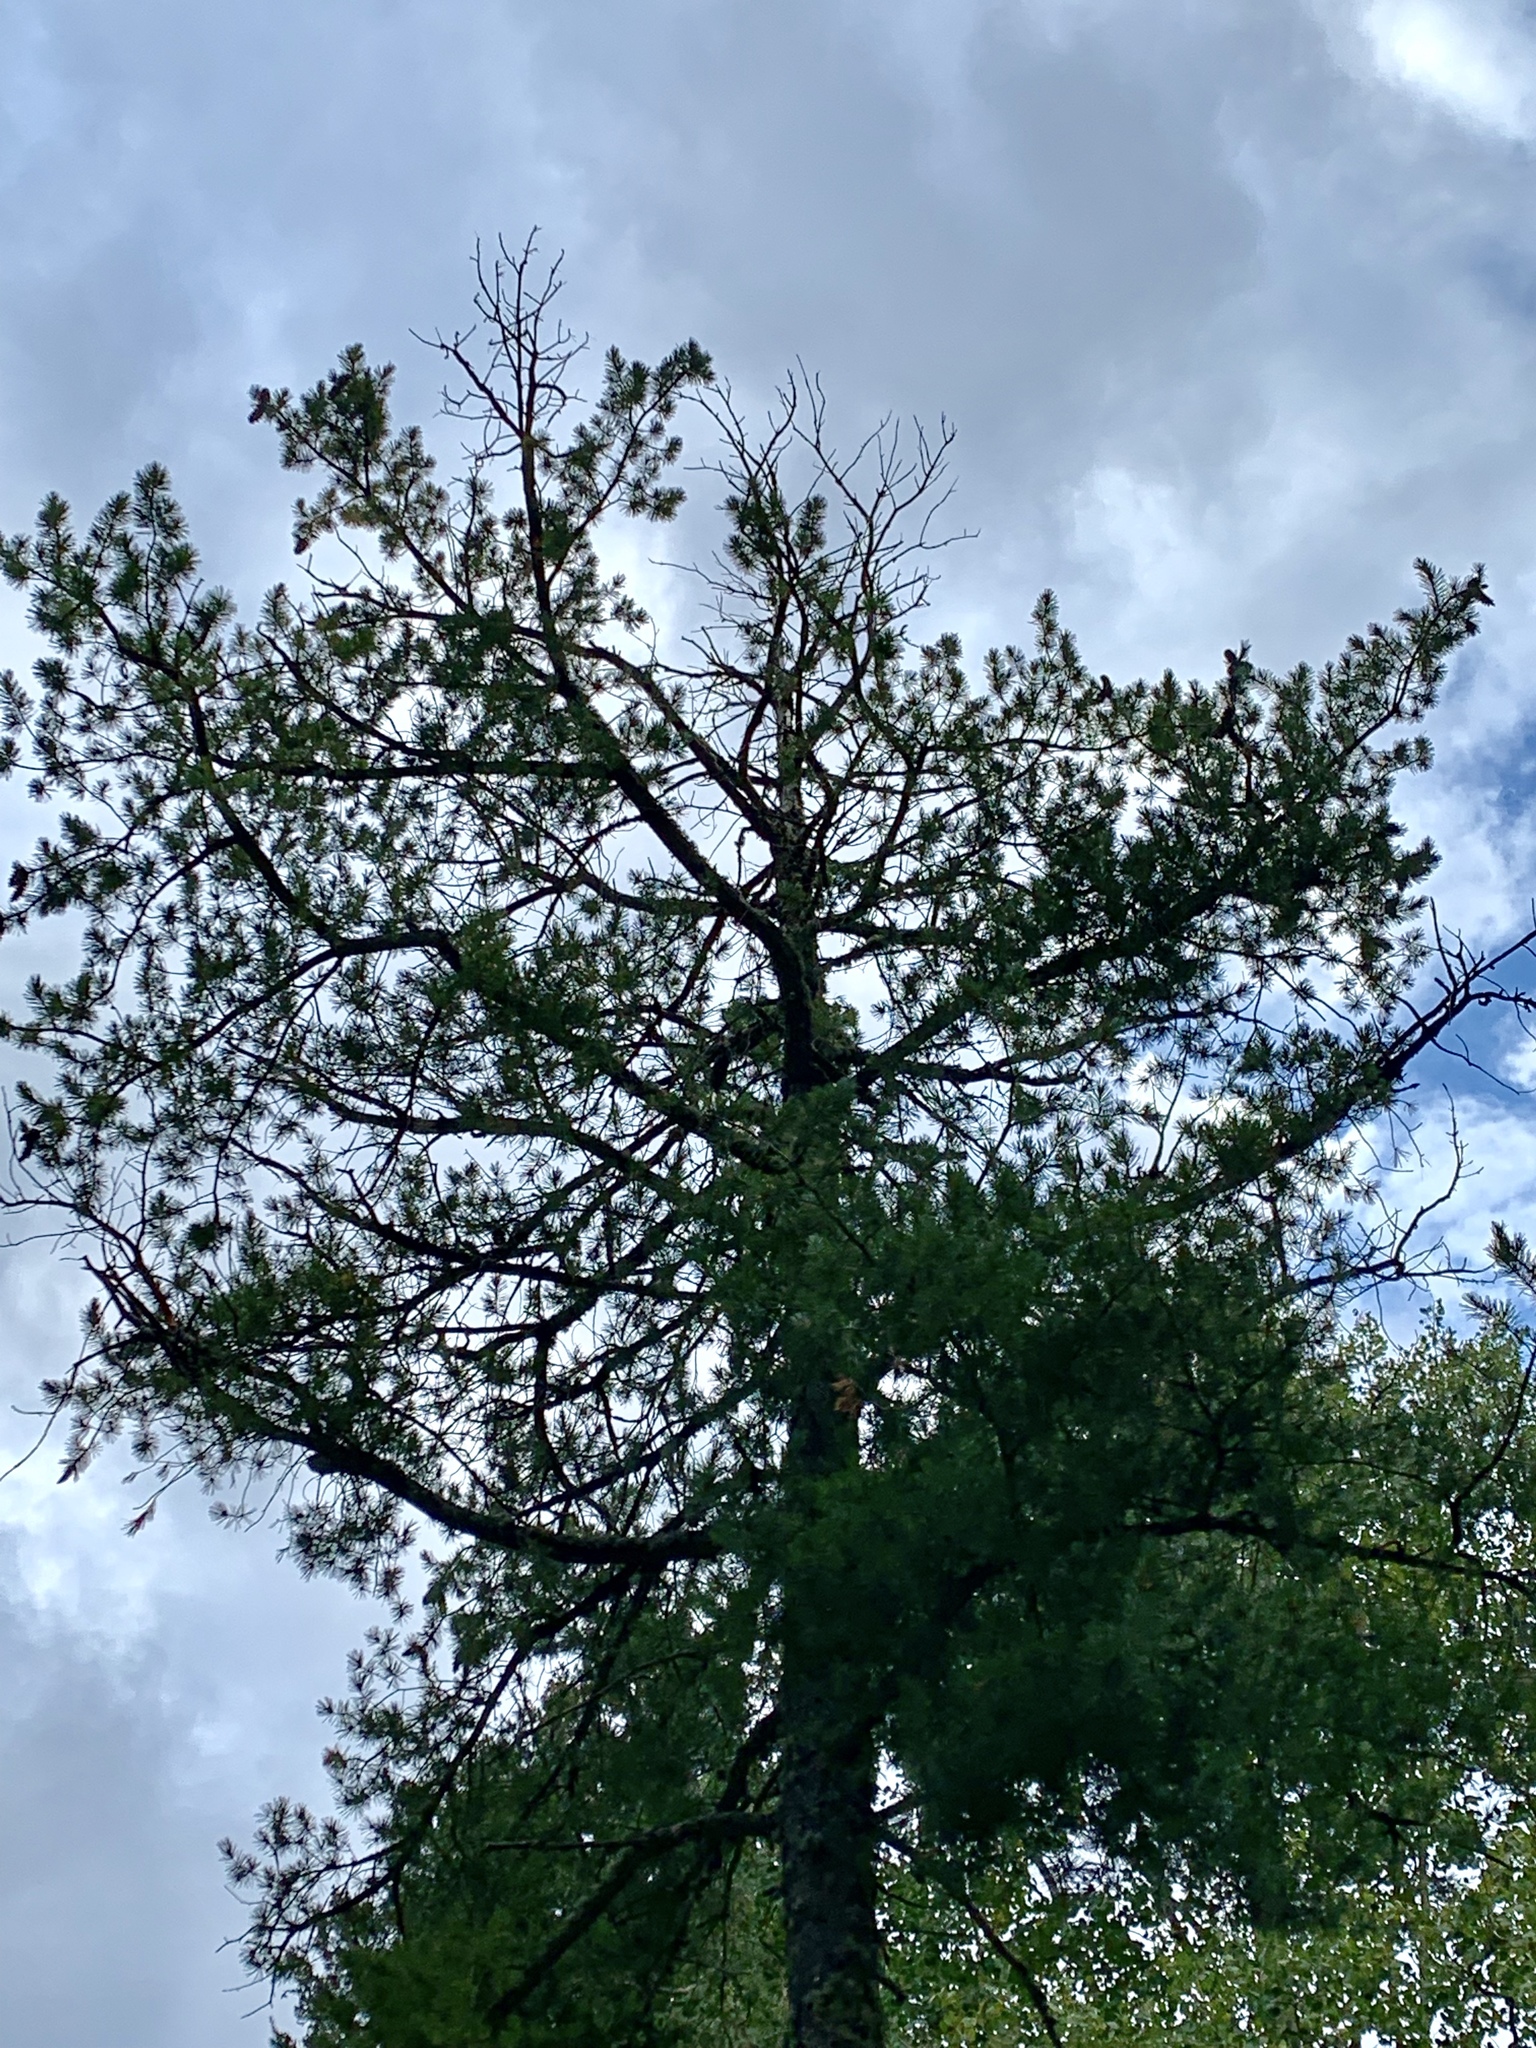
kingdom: Plantae
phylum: Tracheophyta
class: Pinopsida
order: Pinales
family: Pinaceae
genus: Pinus
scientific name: Pinus strobiformis
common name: Southwestern white pine
